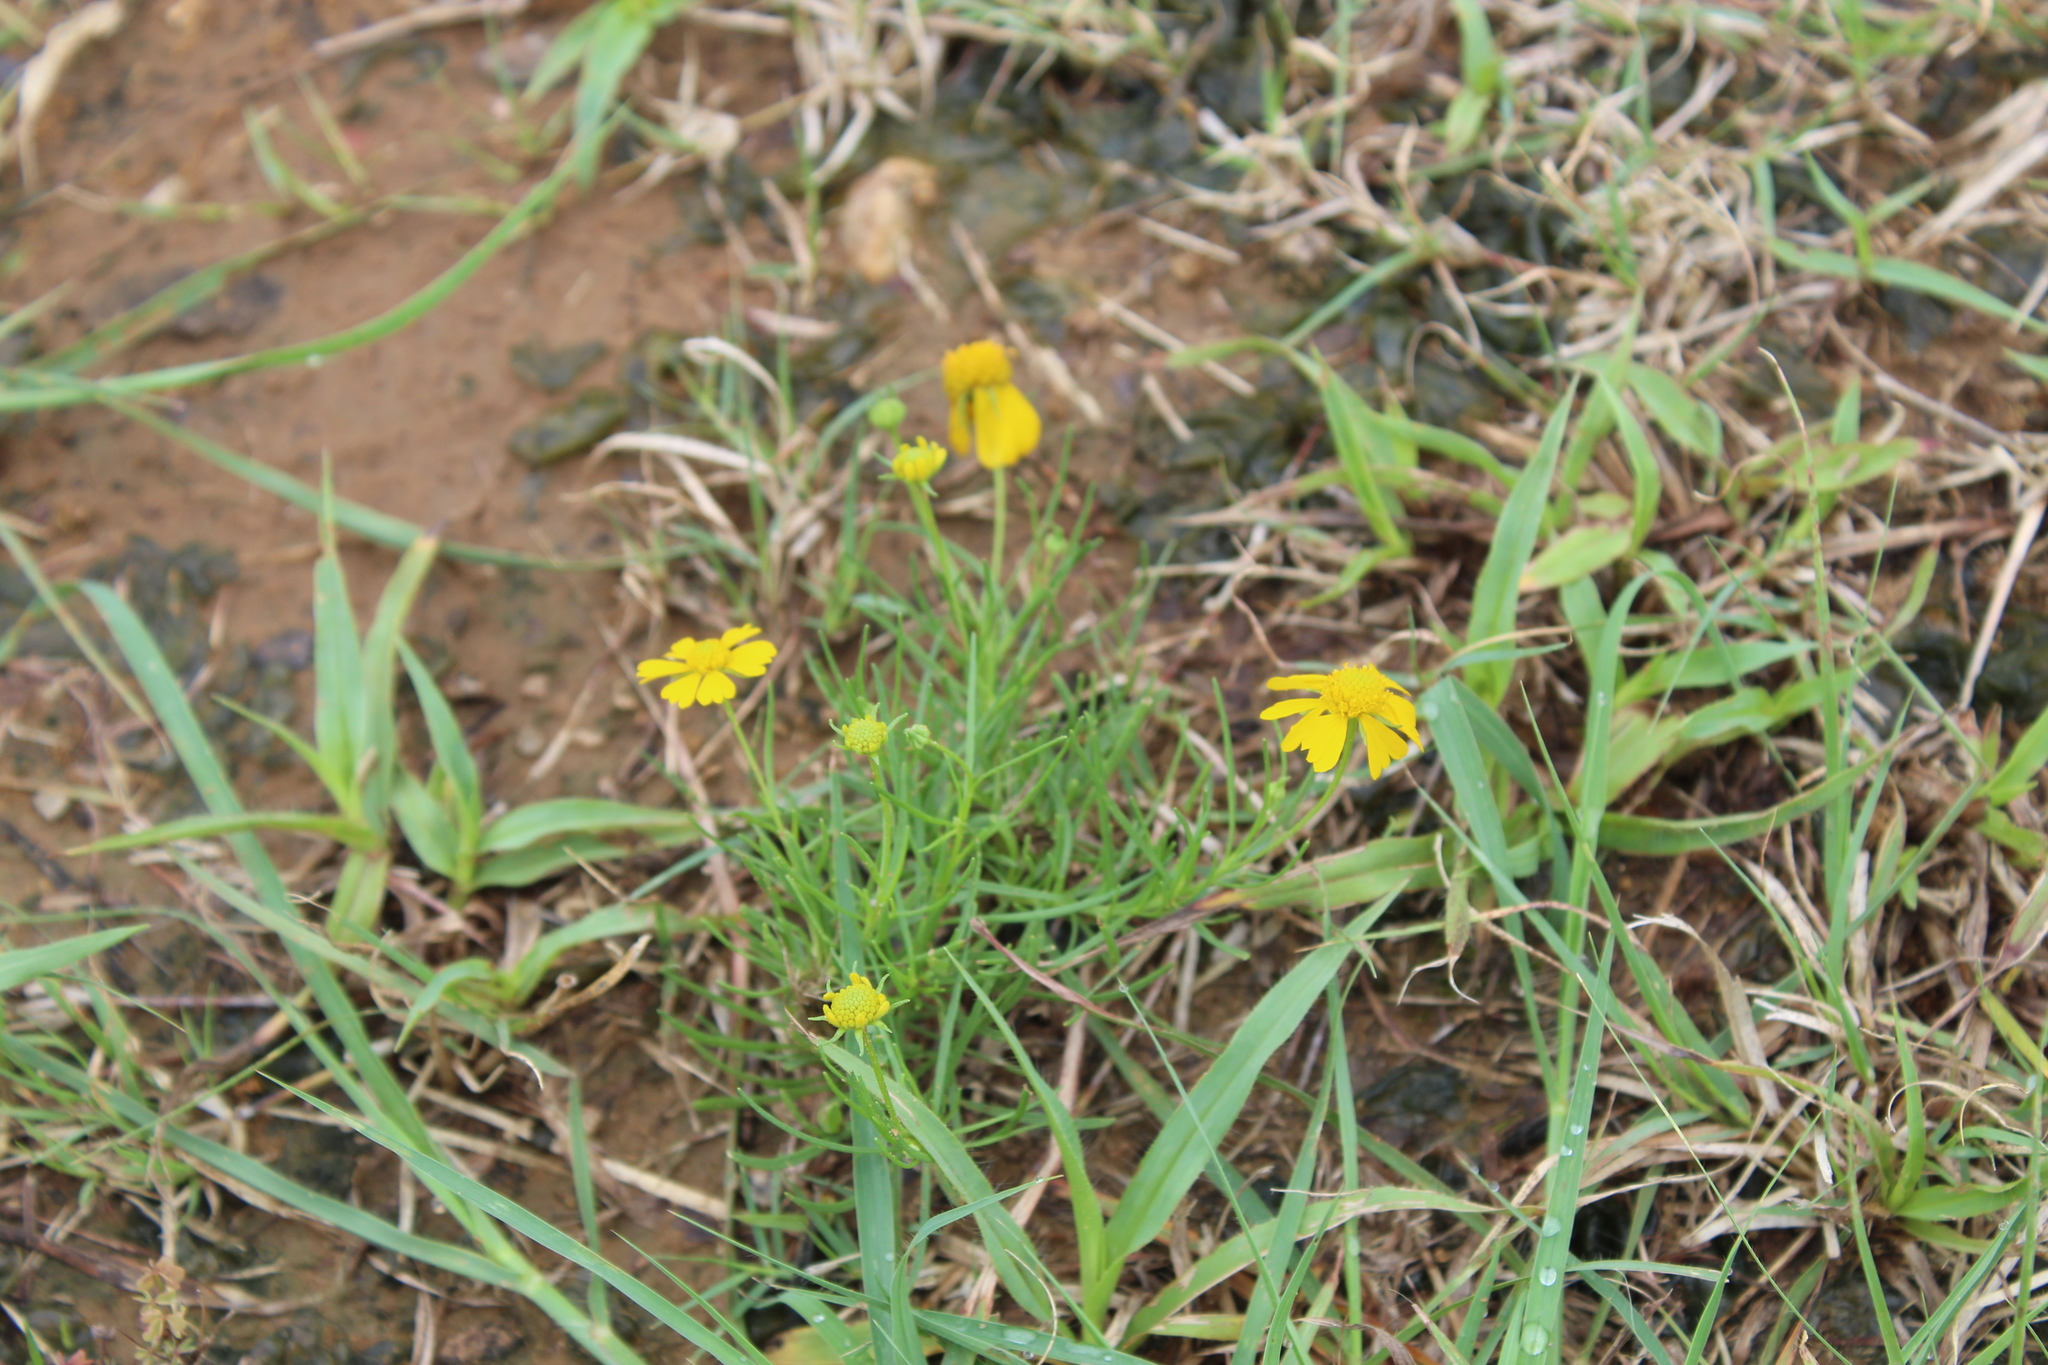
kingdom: Plantae
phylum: Tracheophyta
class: Magnoliopsida
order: Asterales
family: Asteraceae
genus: Helenium
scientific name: Helenium amarum
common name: Bitter sneezeweed
